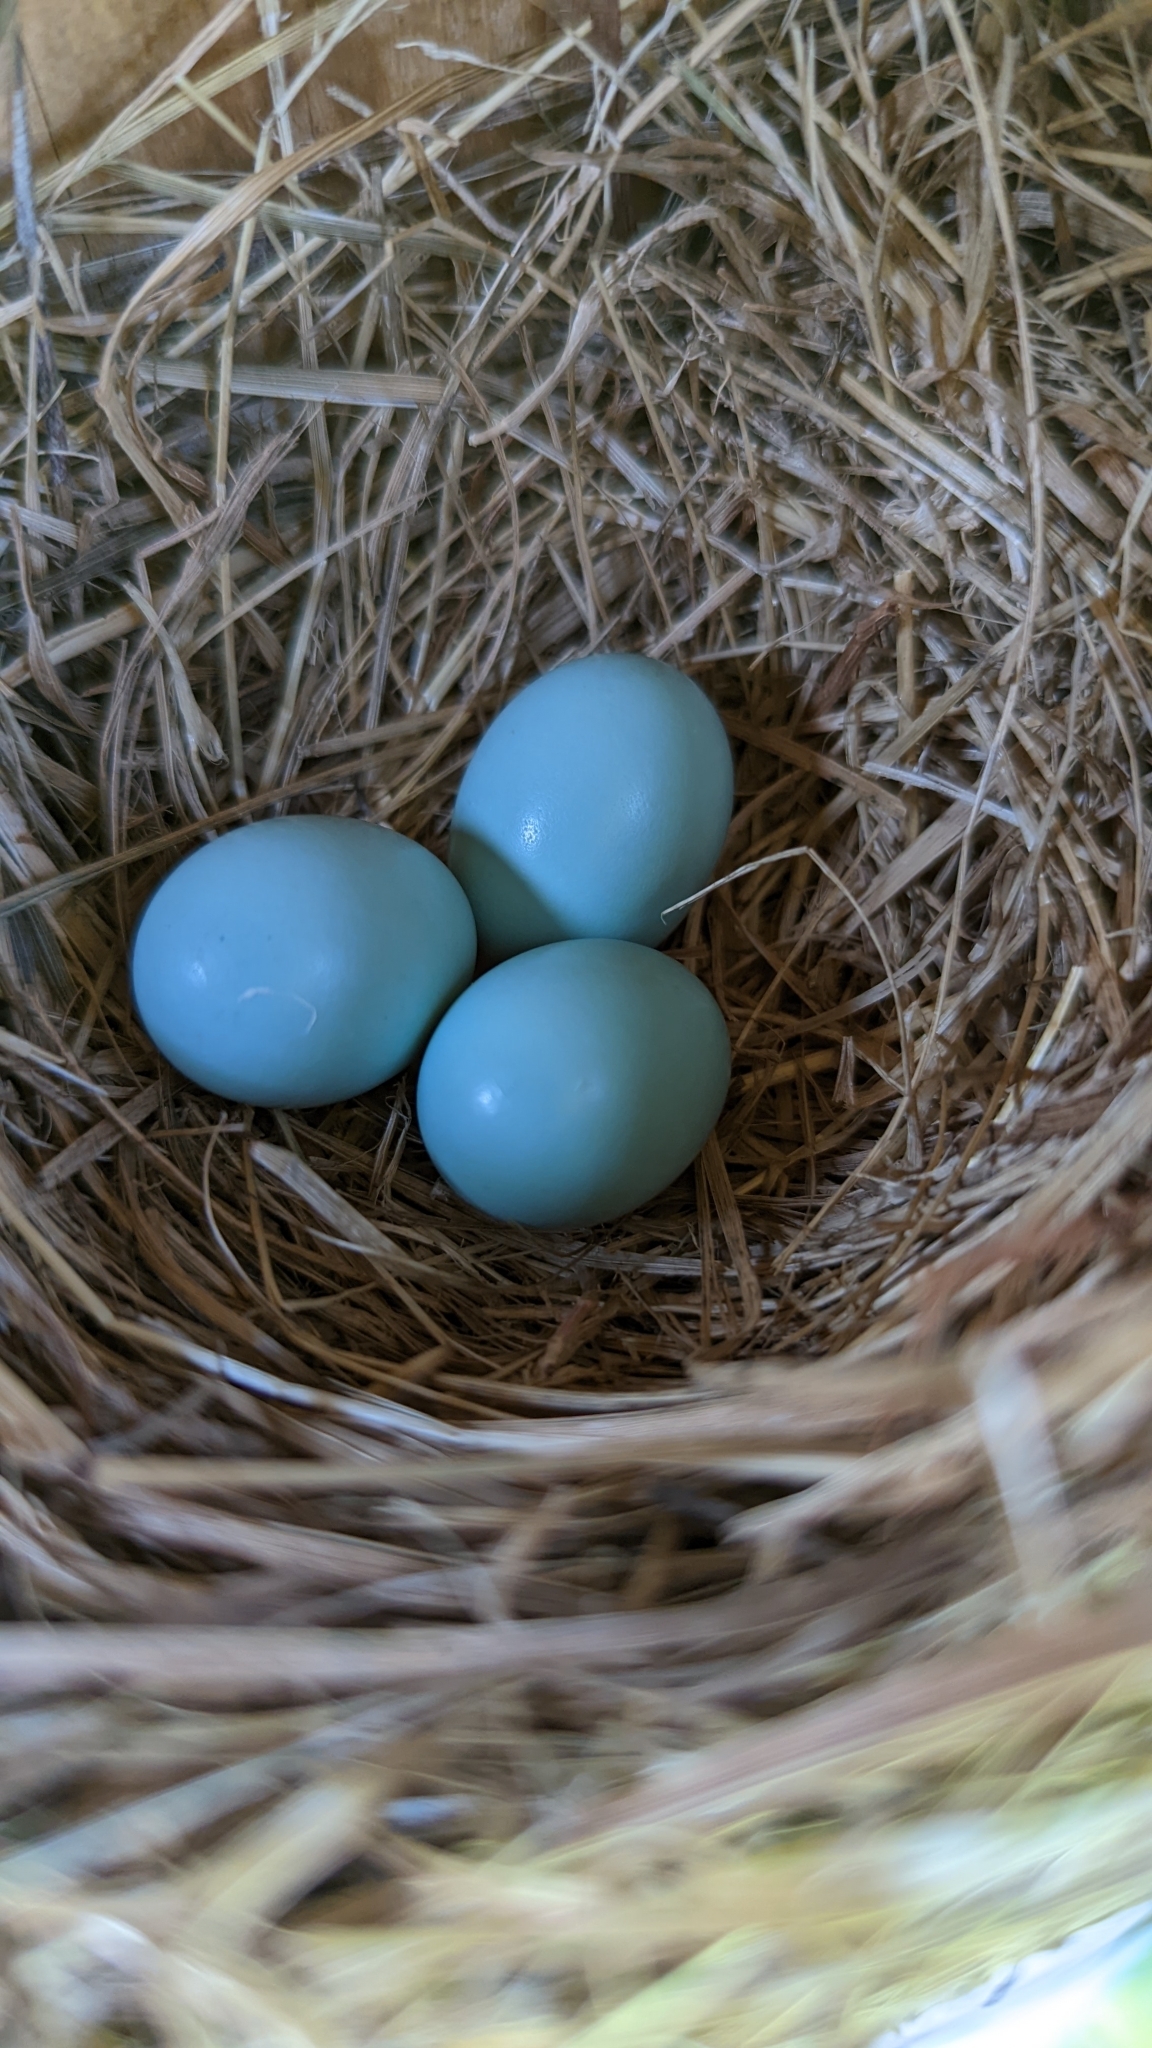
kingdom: Animalia
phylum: Chordata
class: Aves
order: Passeriformes
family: Turdidae
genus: Sialia
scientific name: Sialia sialis
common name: Eastern bluebird
